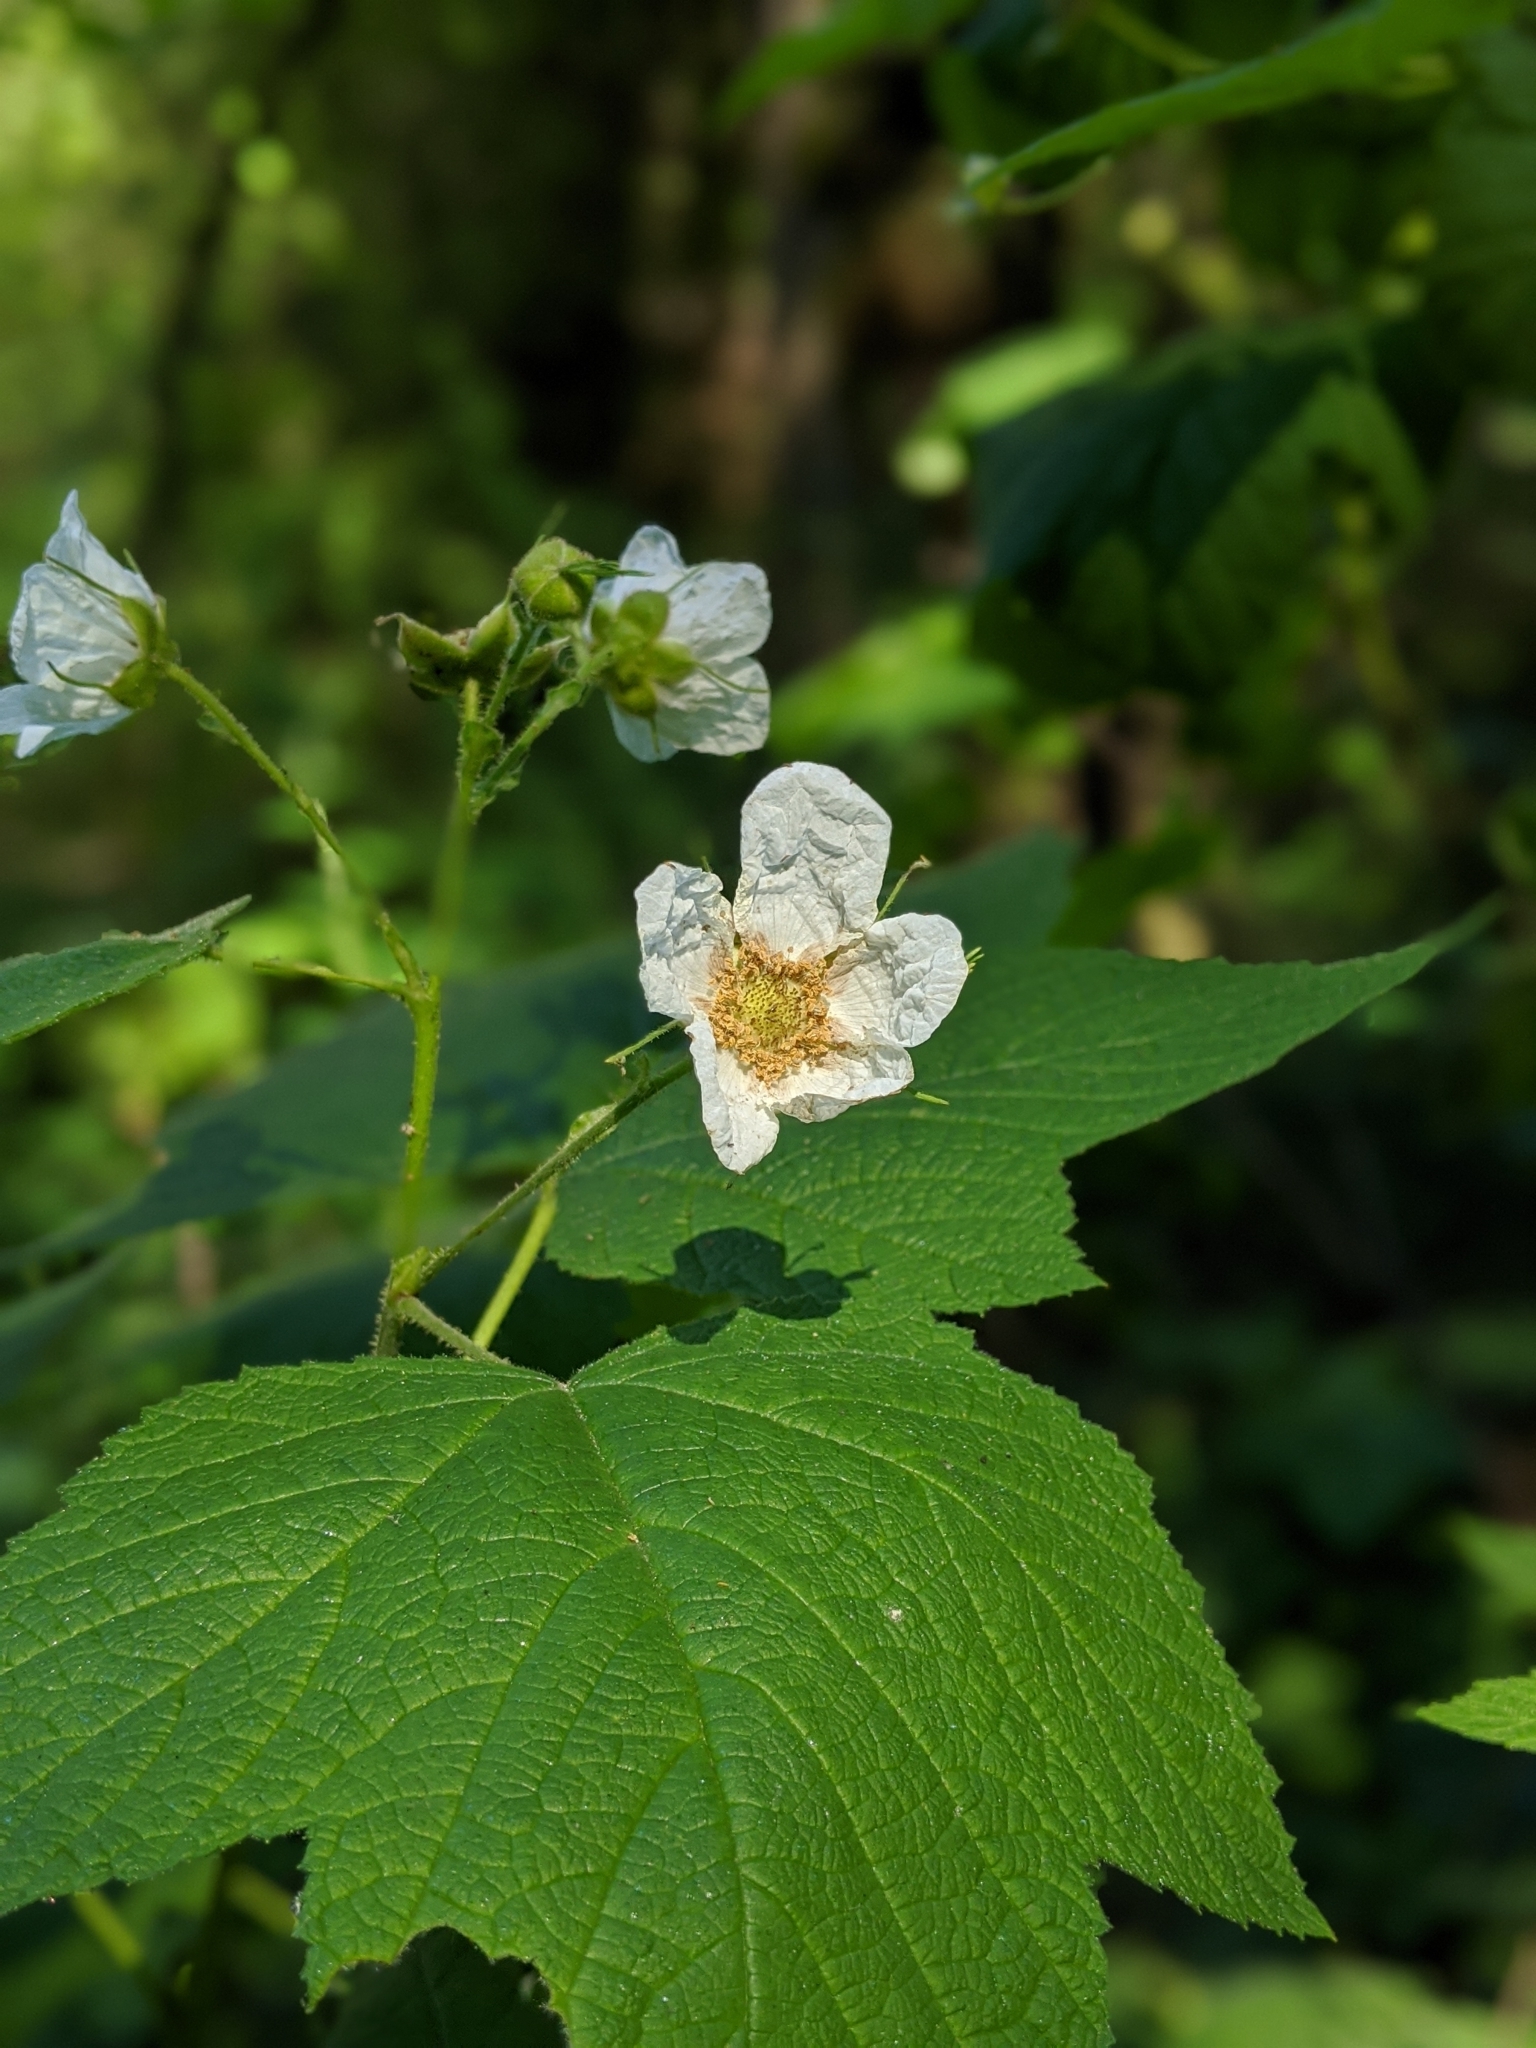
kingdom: Plantae
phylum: Tracheophyta
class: Magnoliopsida
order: Rosales
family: Rosaceae
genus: Rubus
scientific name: Rubus parviflorus
